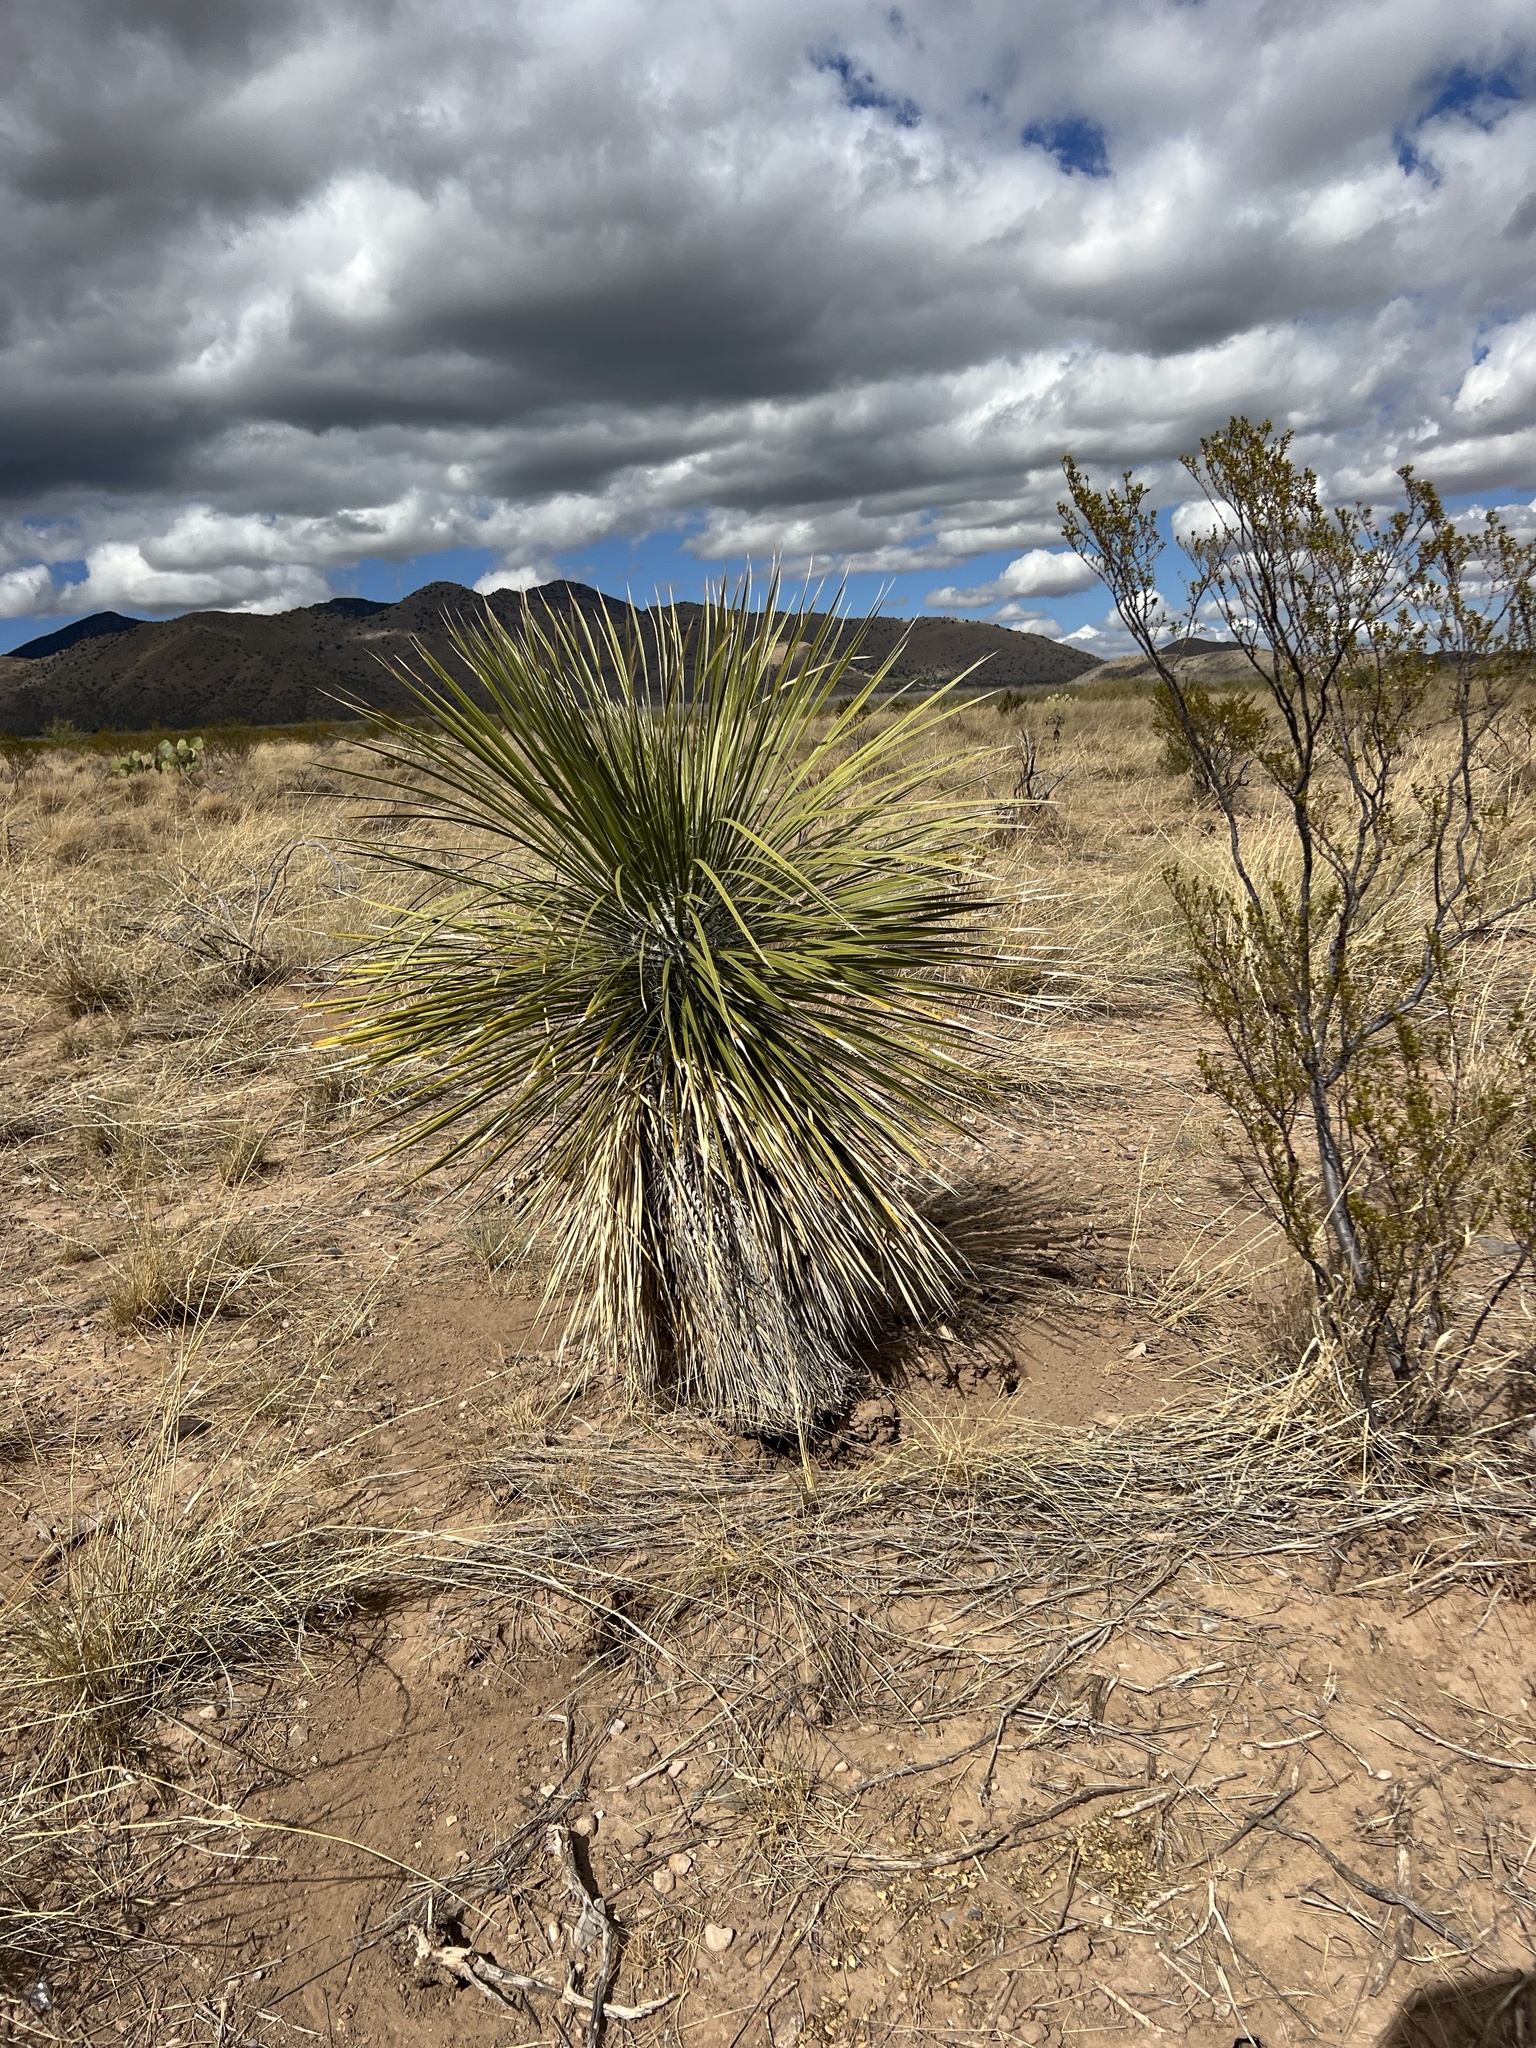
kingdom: Plantae
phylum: Tracheophyta
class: Liliopsida
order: Asparagales
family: Asparagaceae
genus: Yucca
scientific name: Yucca elata
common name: Palmella
